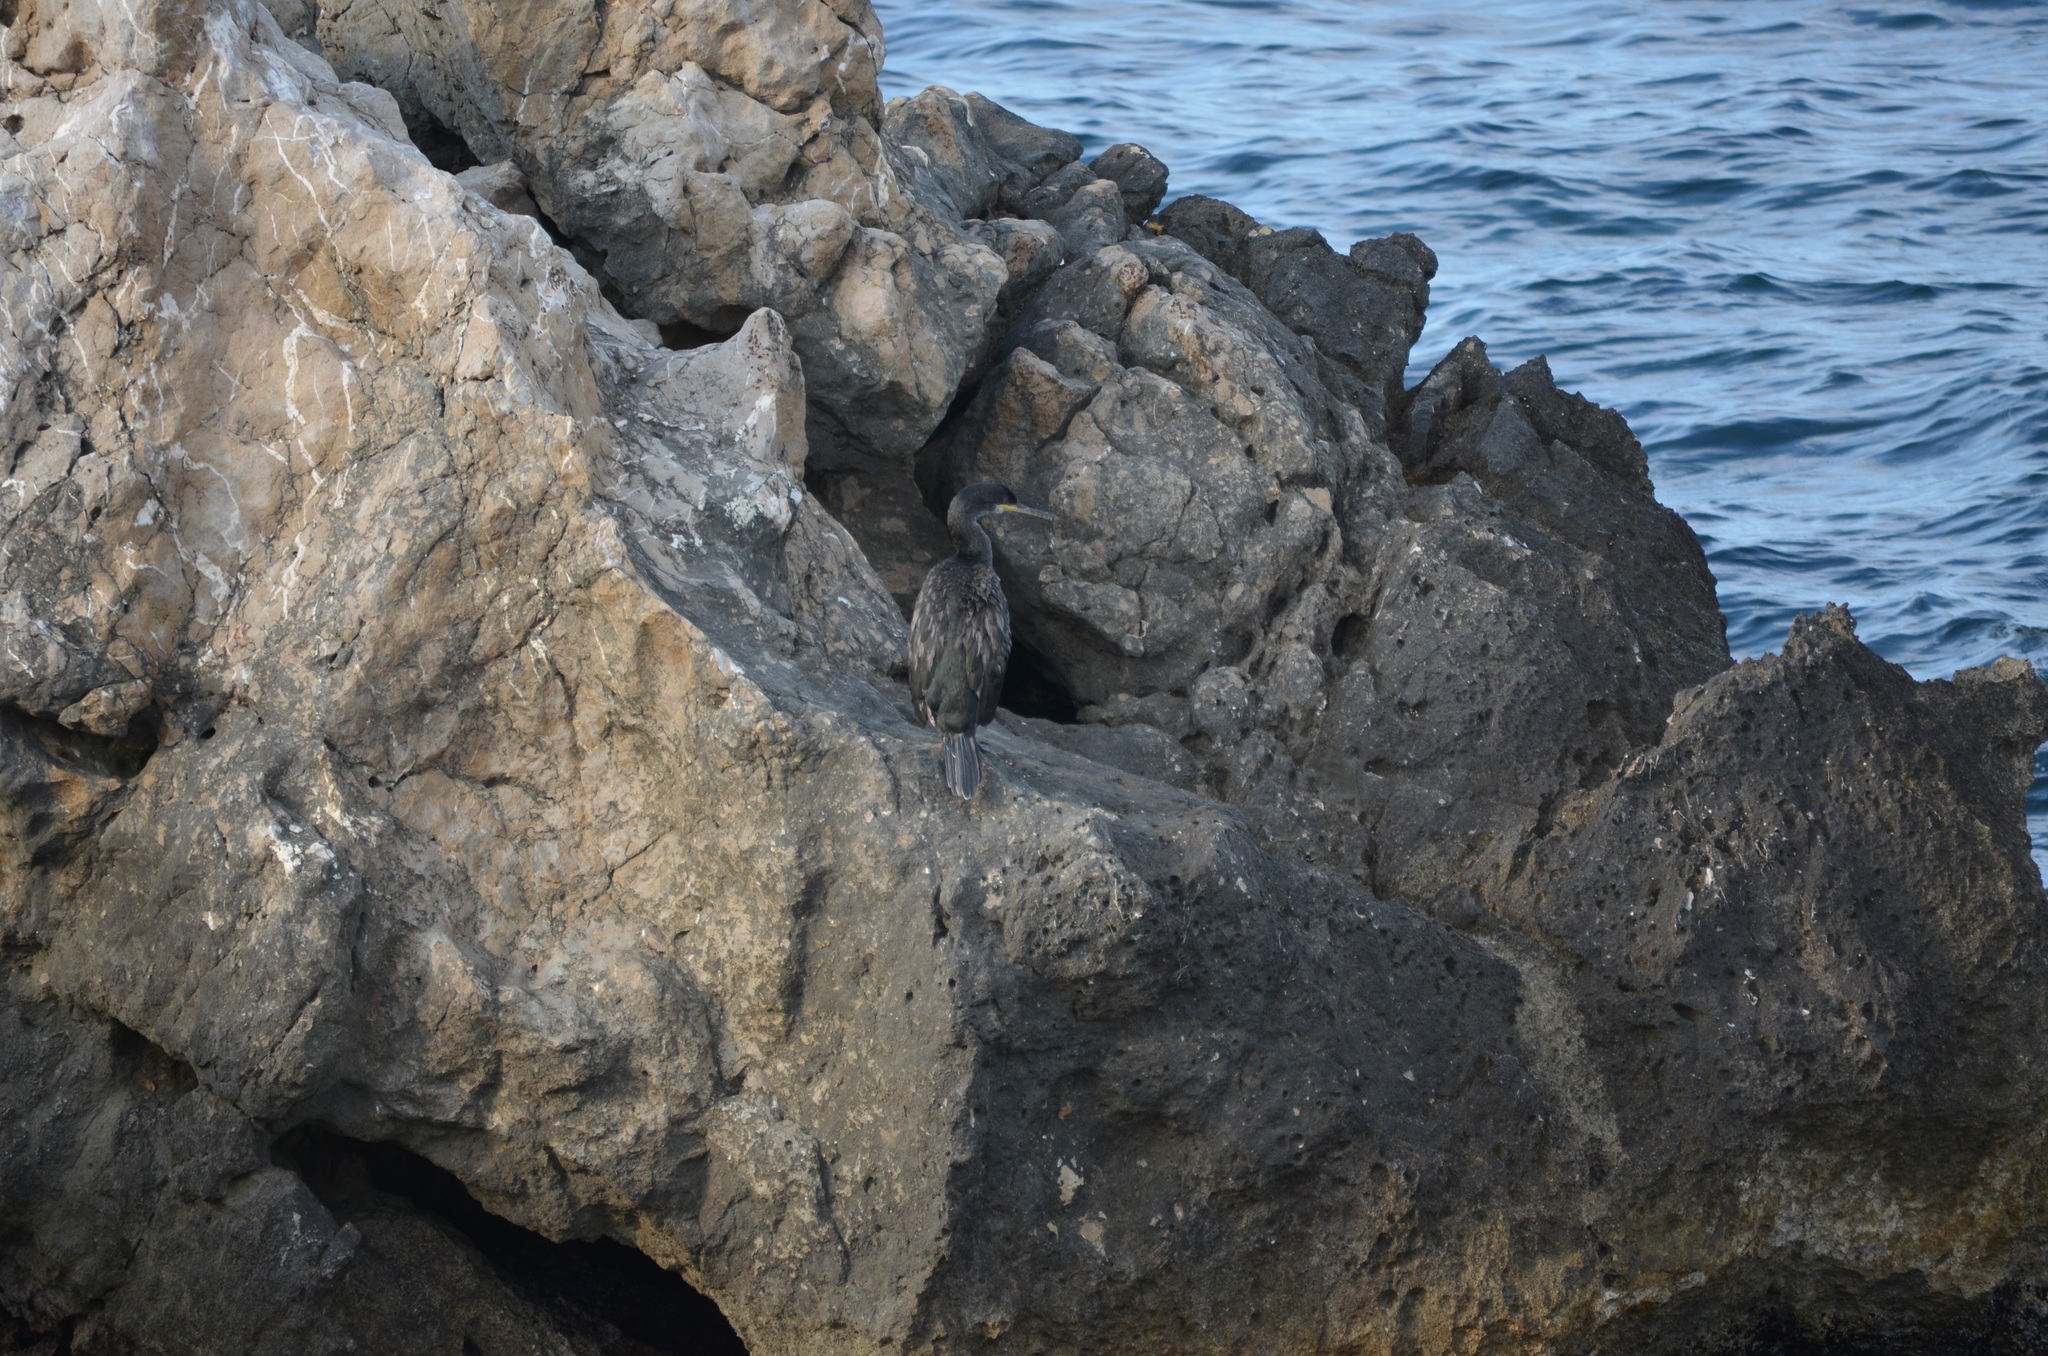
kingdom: Animalia
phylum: Chordata
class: Aves
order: Suliformes
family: Phalacrocoracidae
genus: Phalacrocorax
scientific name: Phalacrocorax aristotelis
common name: European shag
